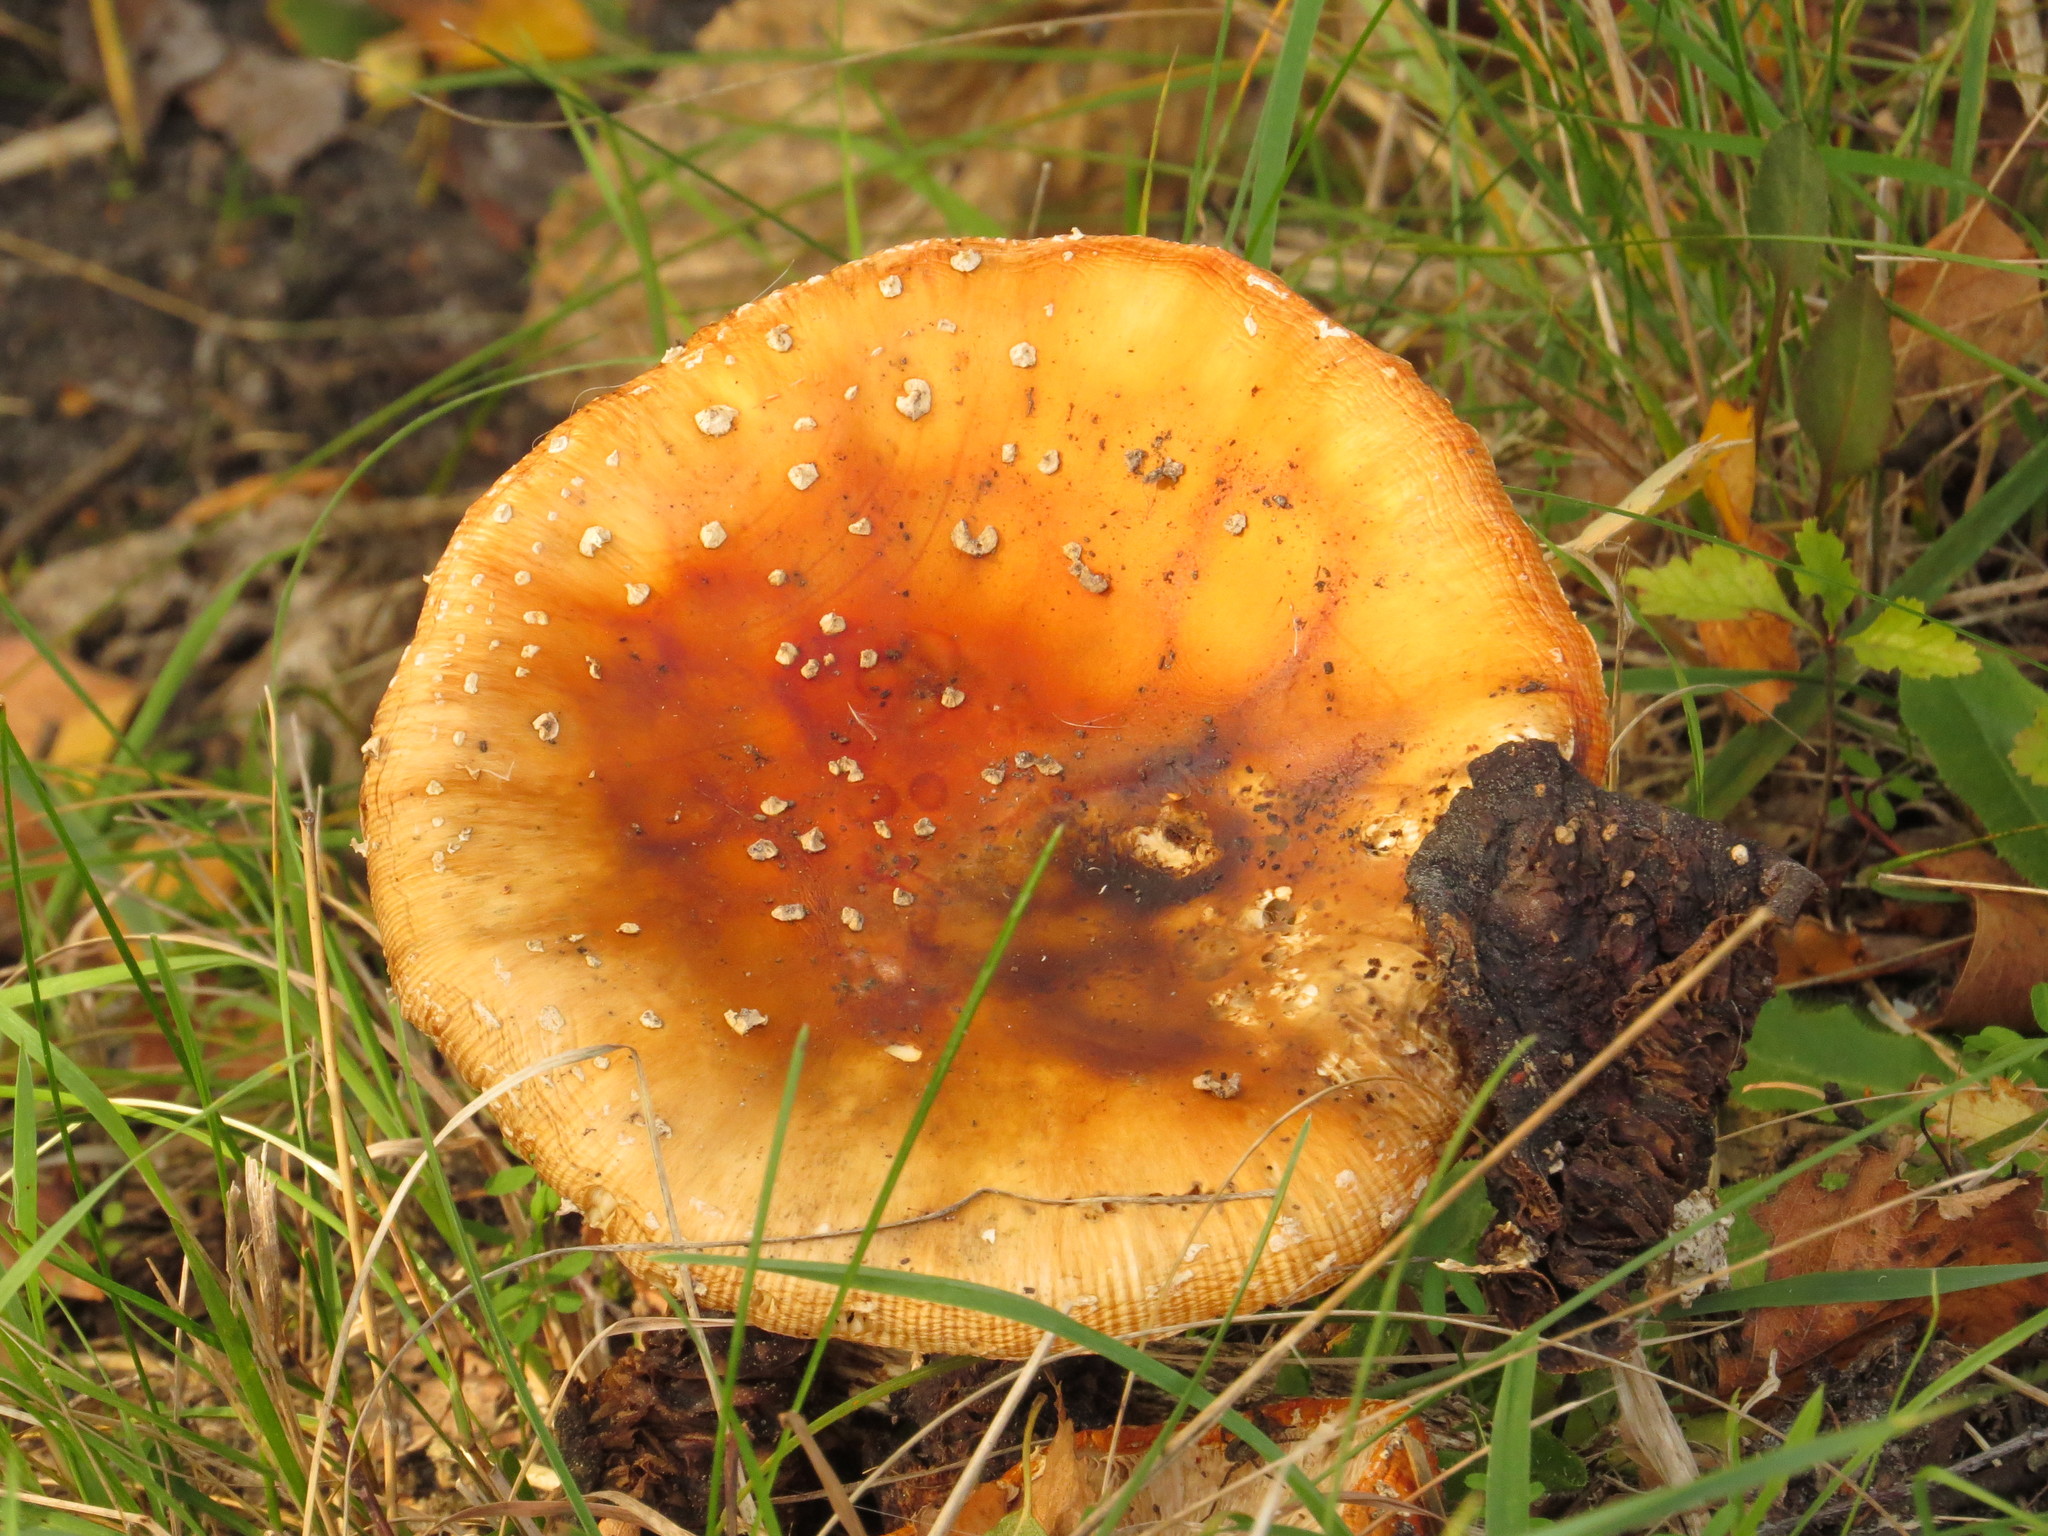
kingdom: Fungi
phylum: Basidiomycota
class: Agaricomycetes
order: Agaricales
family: Amanitaceae
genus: Amanita
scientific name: Amanita muscaria
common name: Fly agaric
